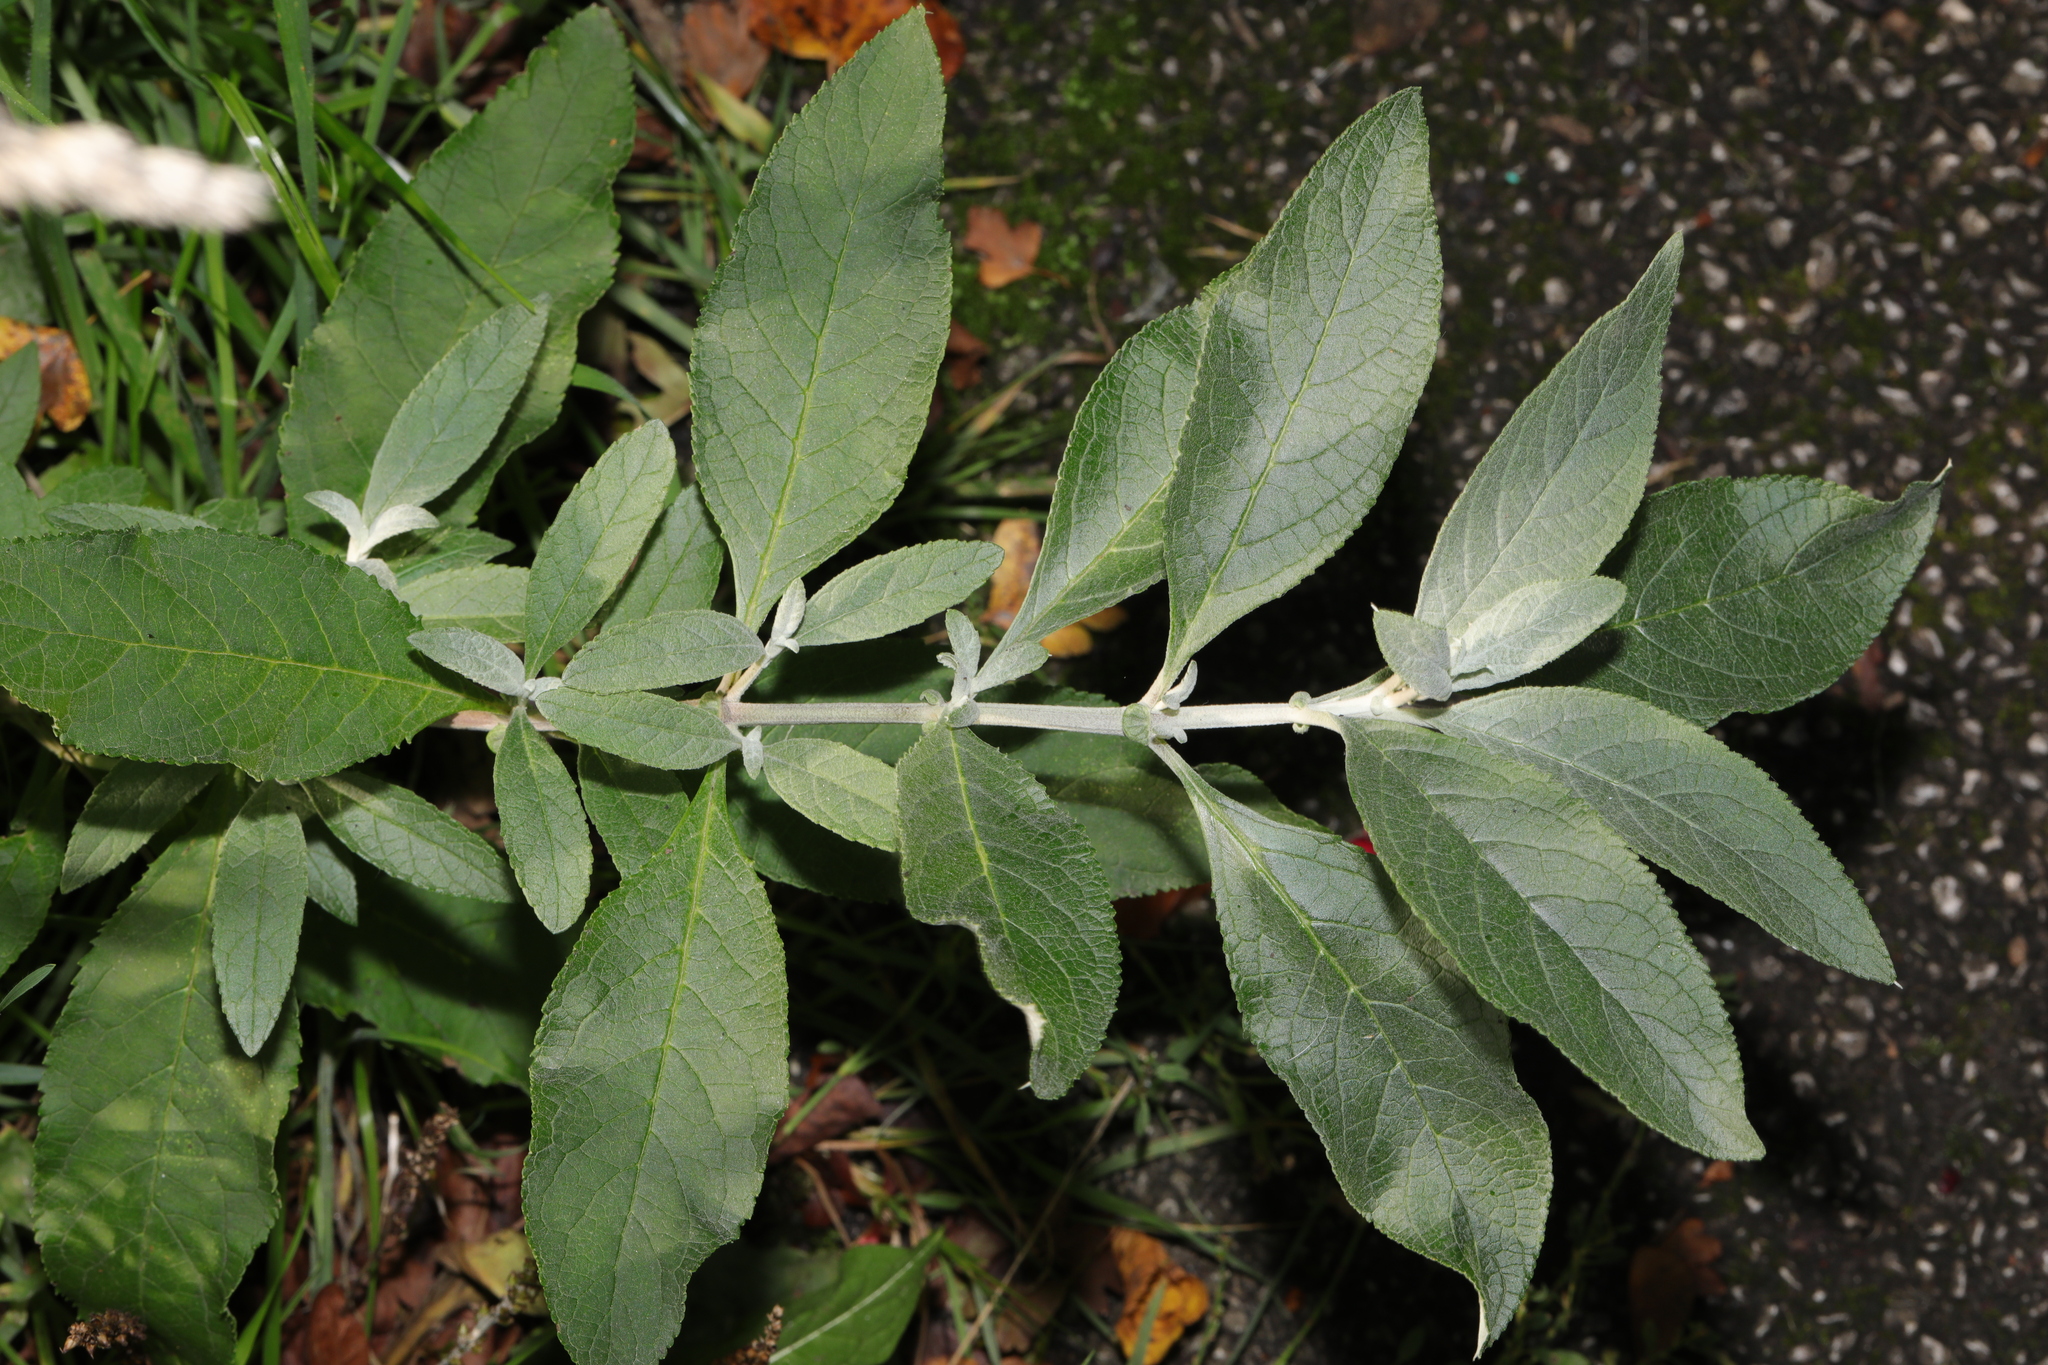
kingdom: Plantae
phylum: Tracheophyta
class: Magnoliopsida
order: Lamiales
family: Scrophulariaceae
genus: Buddleja
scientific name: Buddleja davidii
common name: Butterfly-bush
